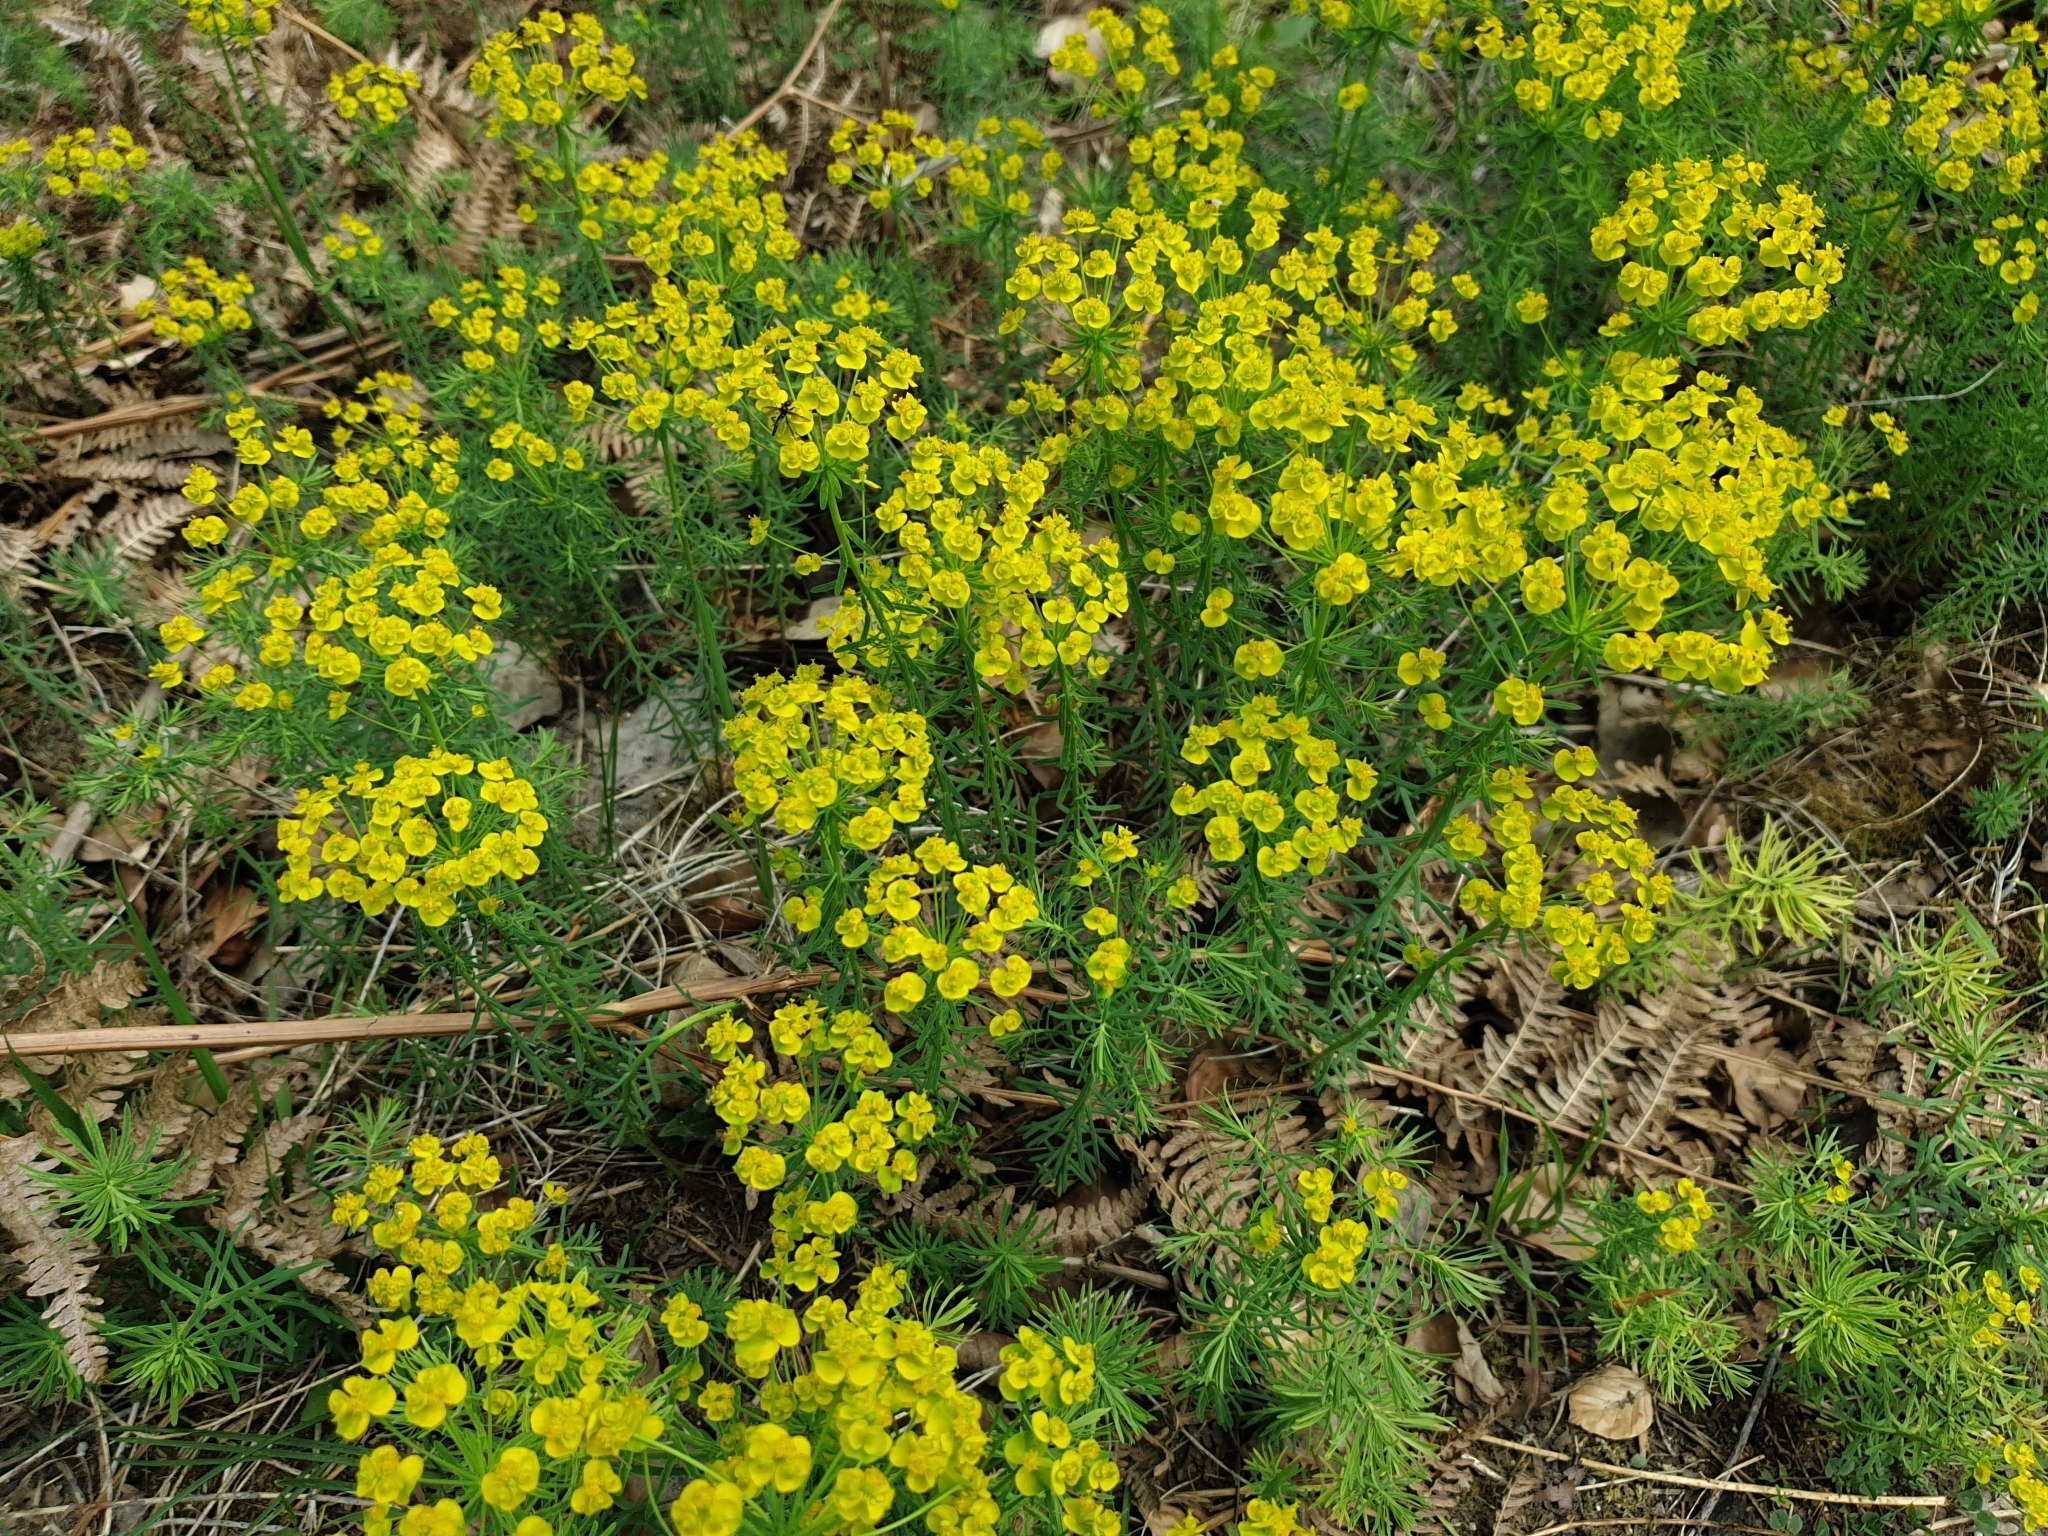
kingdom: Plantae
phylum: Tracheophyta
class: Magnoliopsida
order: Malpighiales
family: Euphorbiaceae
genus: Euphorbia
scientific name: Euphorbia cyparissias
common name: Cypress spurge
